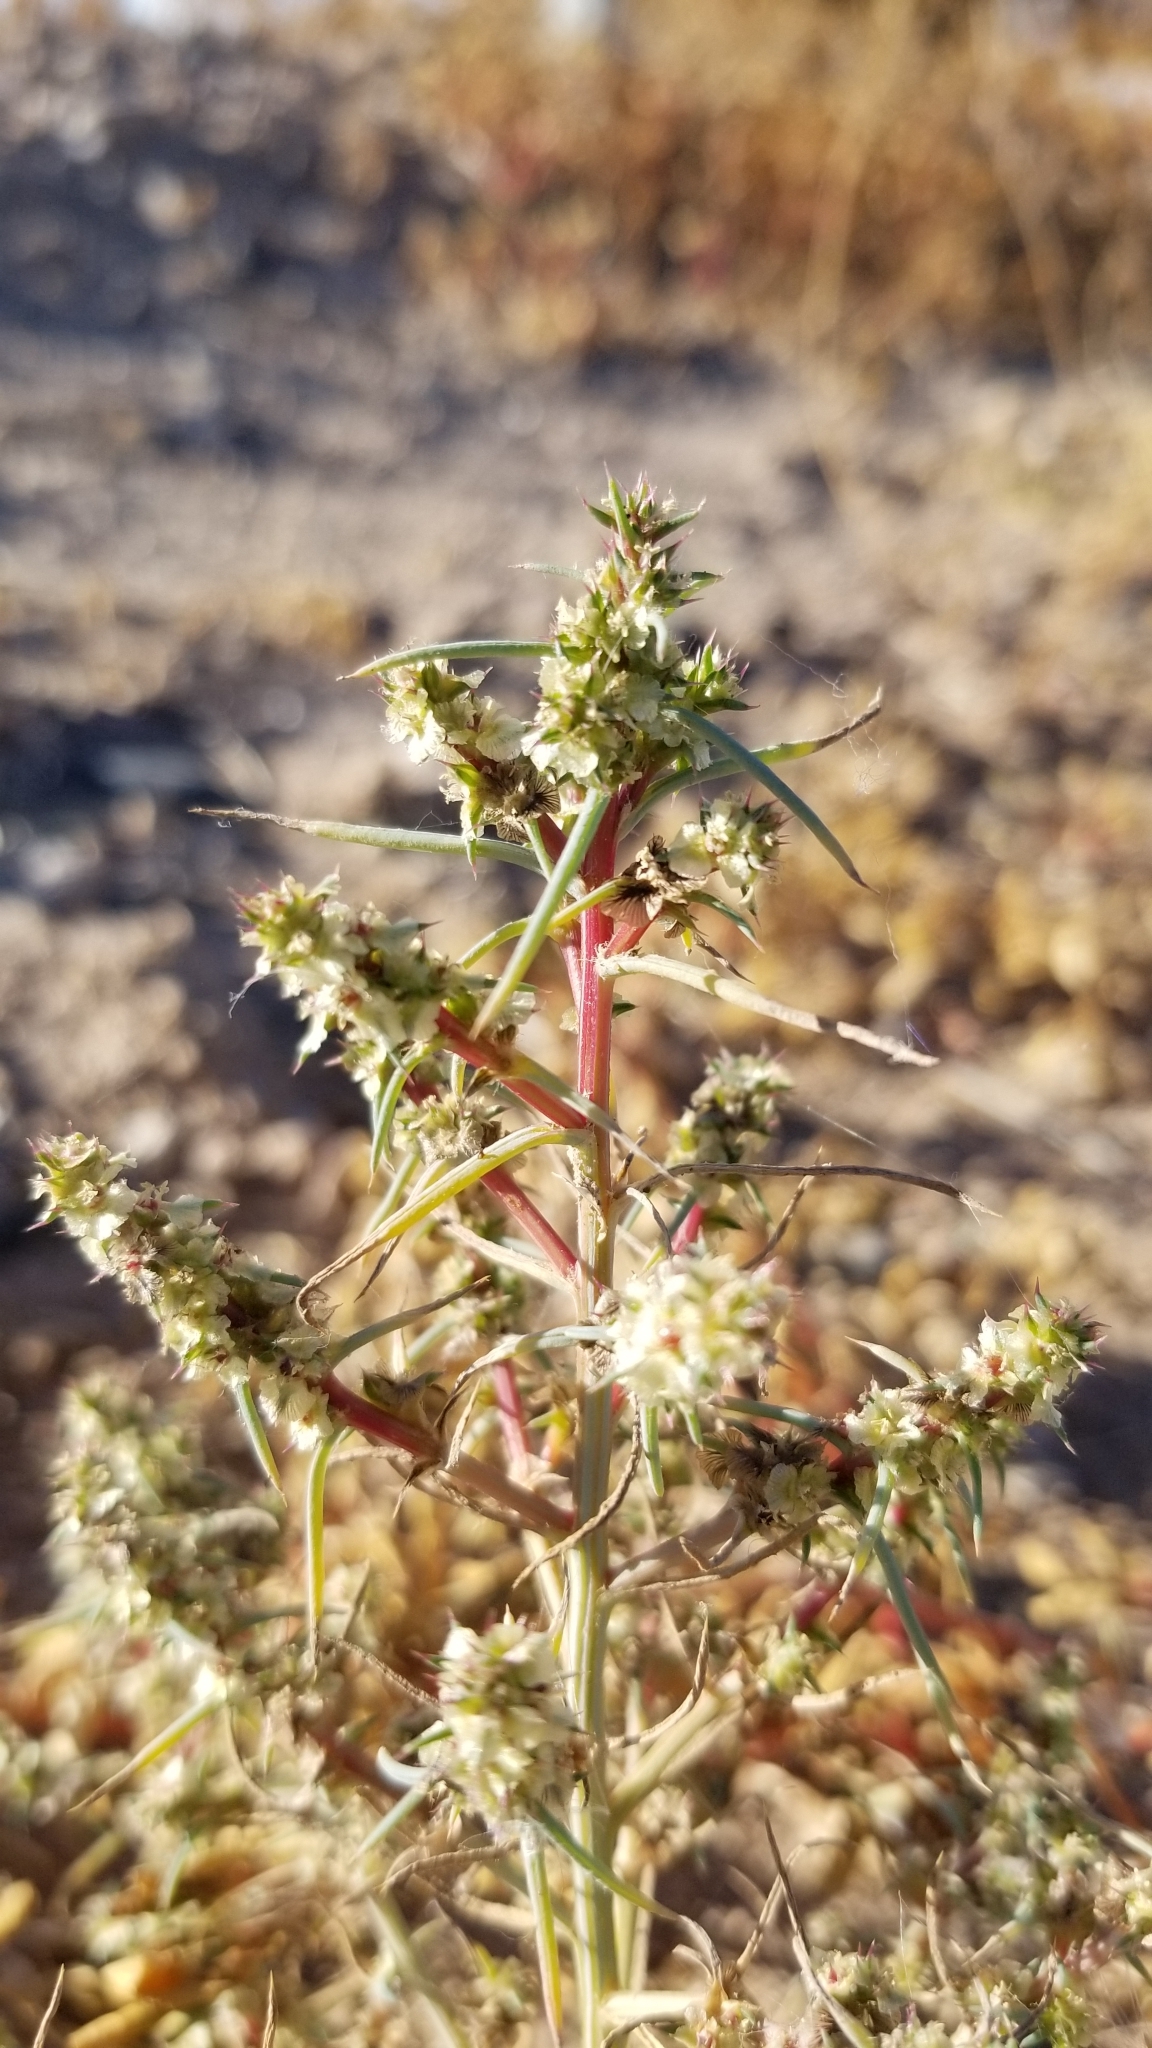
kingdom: Plantae
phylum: Tracheophyta
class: Magnoliopsida
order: Caryophyllales
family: Amaranthaceae
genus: Salsola
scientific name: Salsola tragus
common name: Prickly russian thistle
